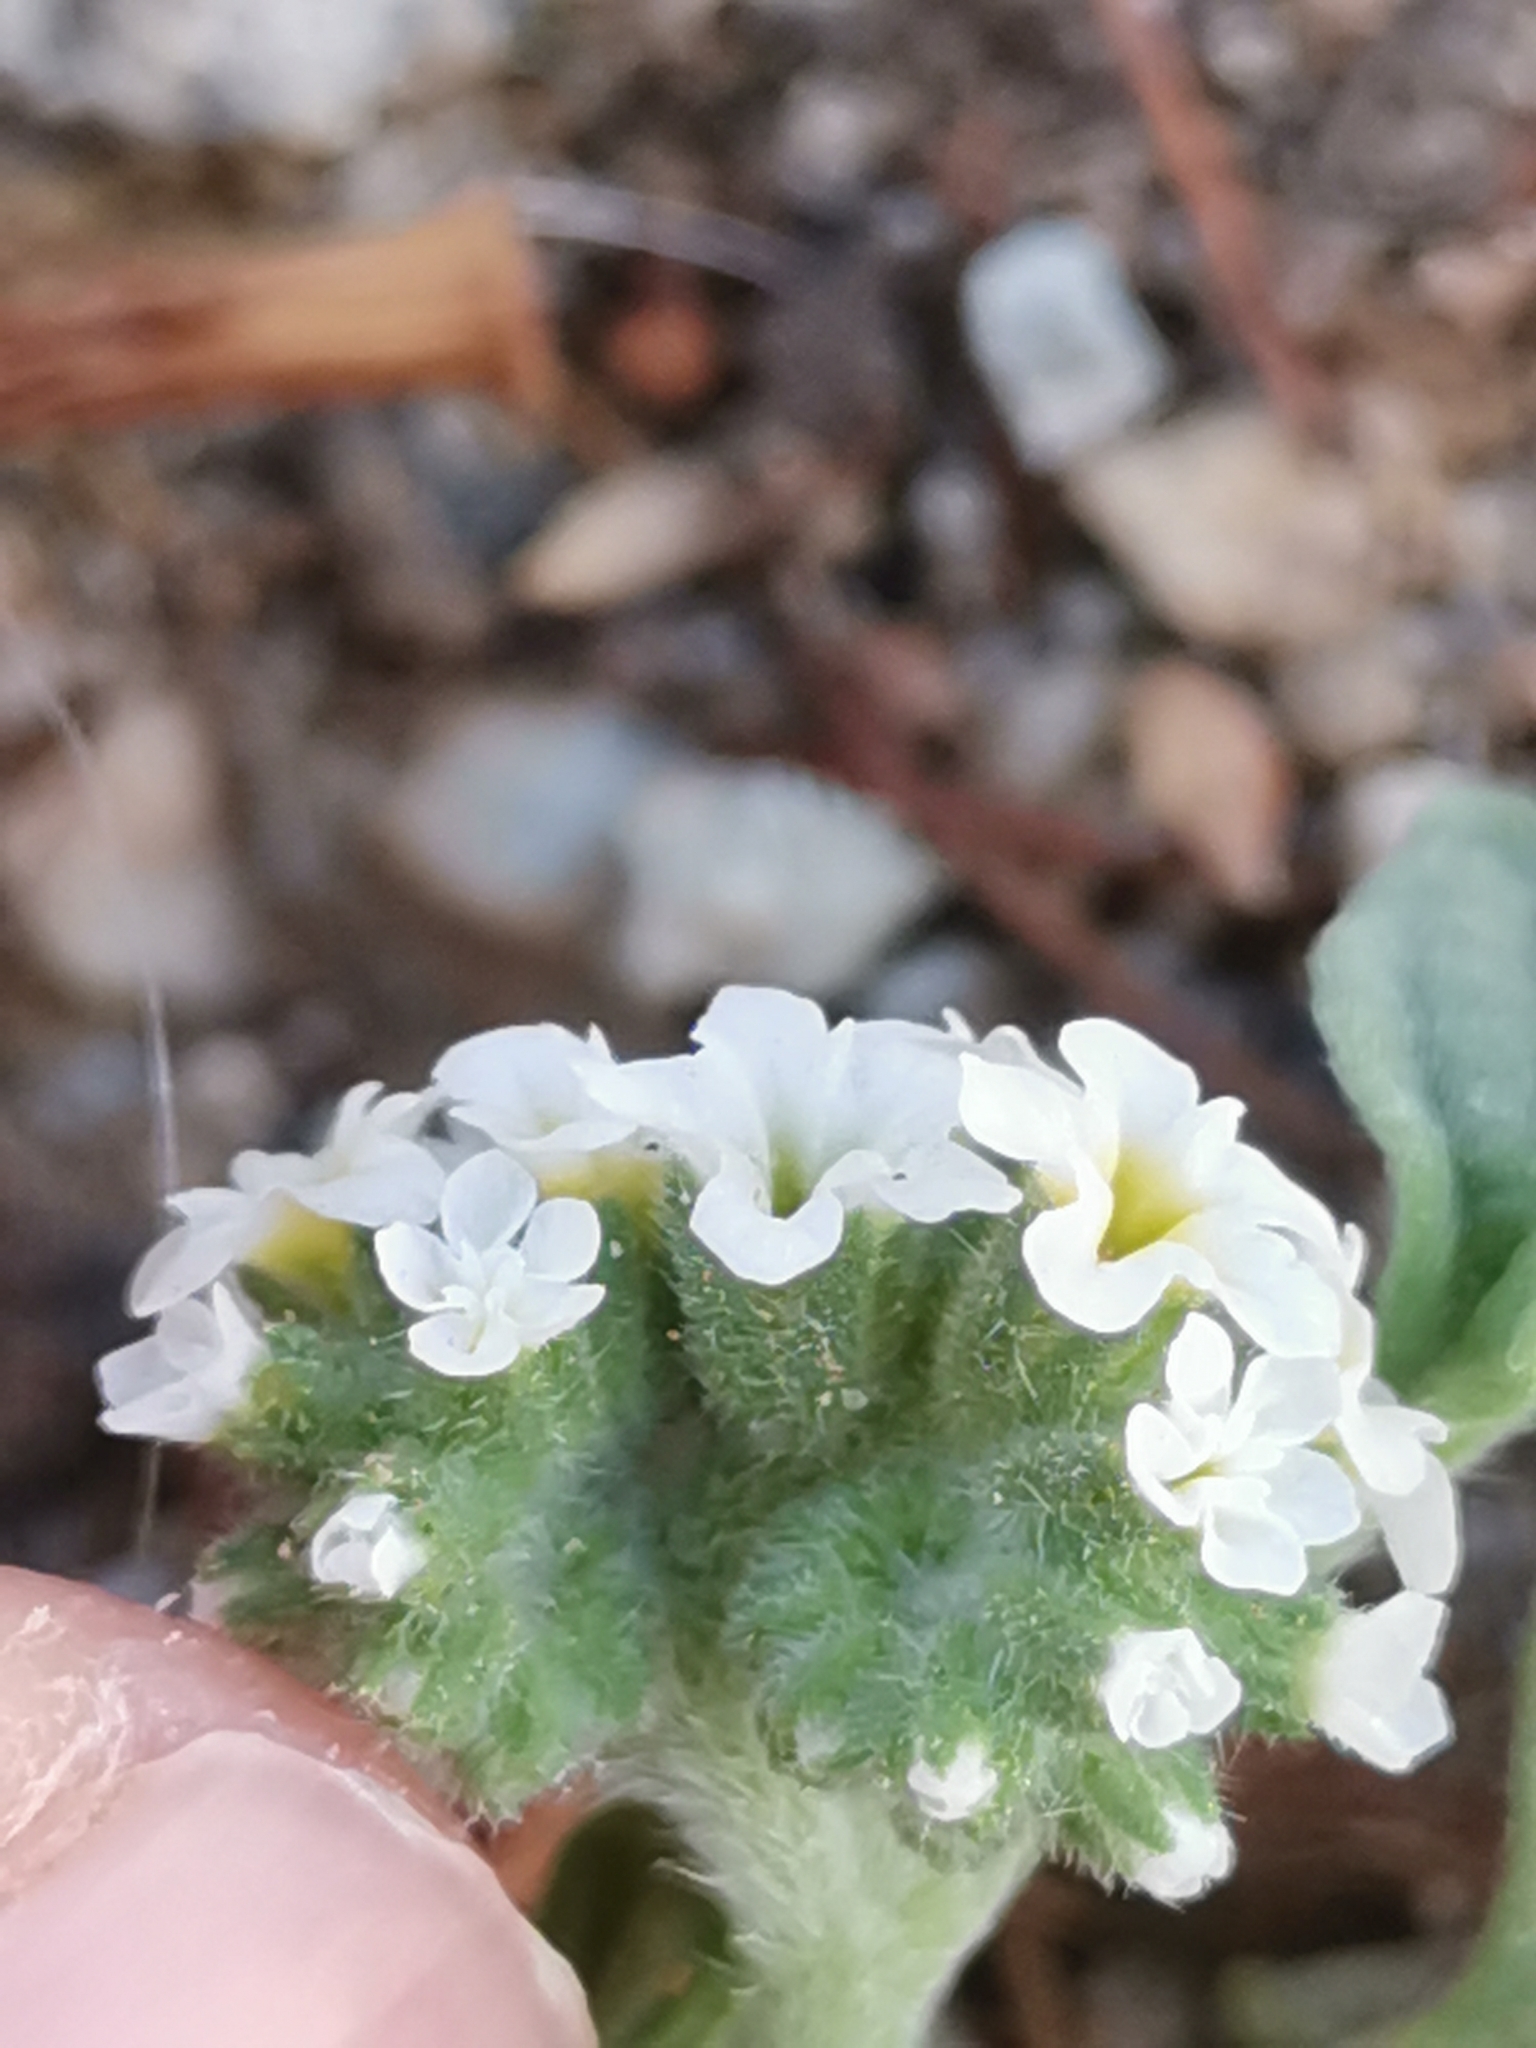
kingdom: Plantae
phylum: Tracheophyta
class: Magnoliopsida
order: Boraginales
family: Heliotropiaceae
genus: Heliotropium
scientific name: Heliotropium europaeum
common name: European heliotrope
